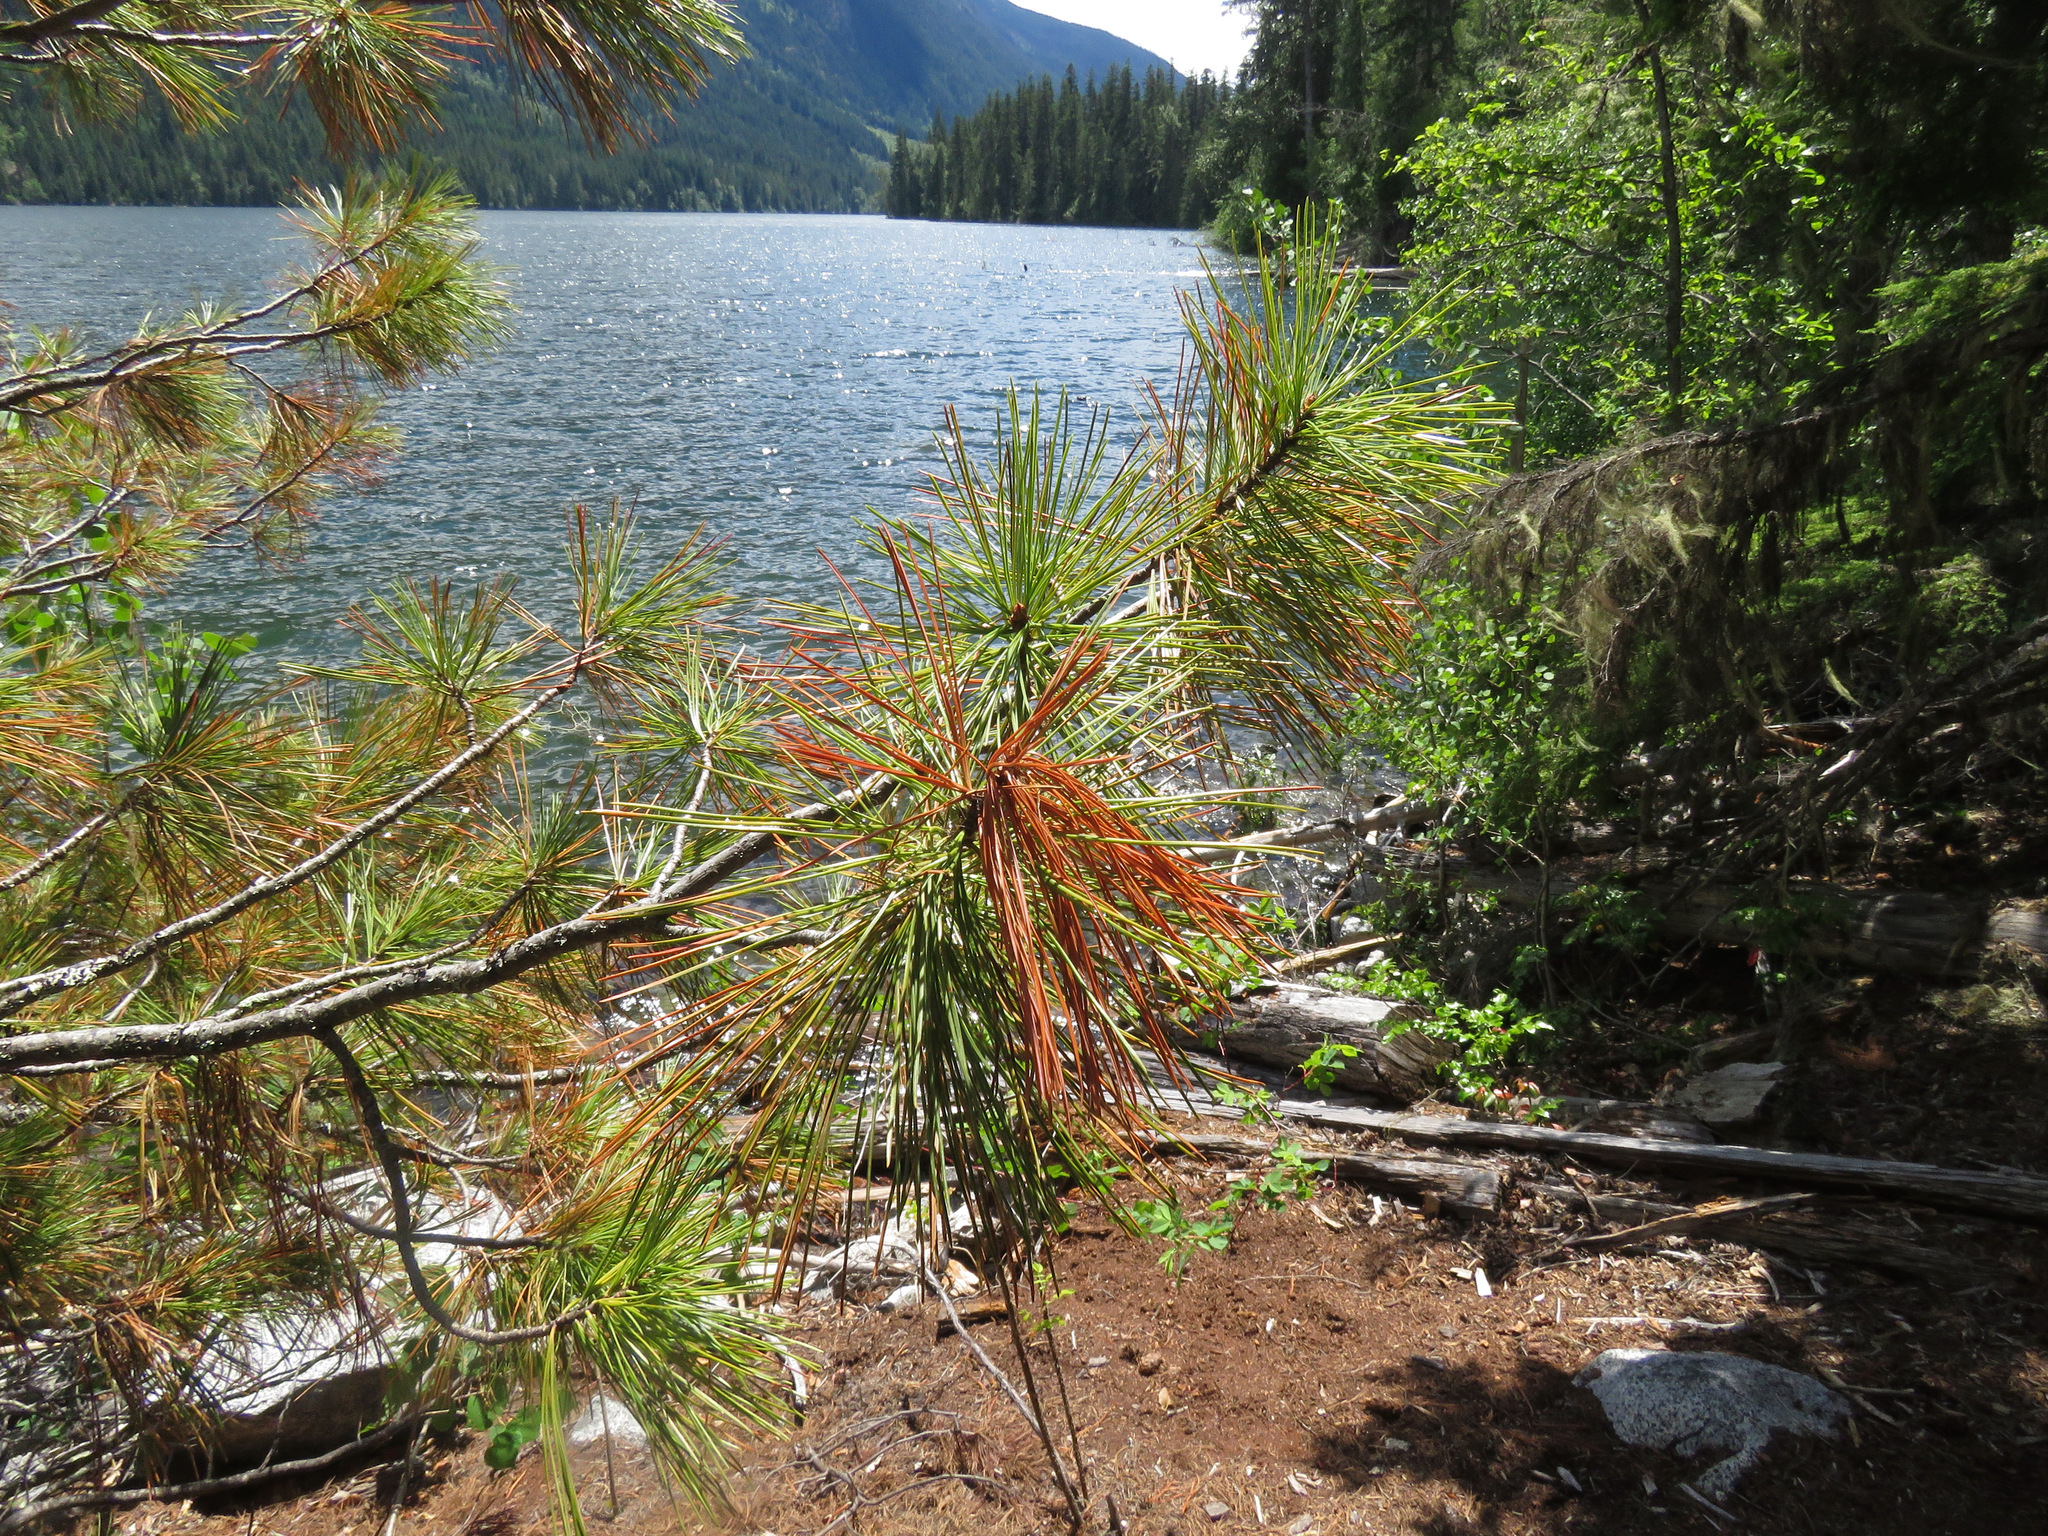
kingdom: Plantae
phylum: Tracheophyta
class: Pinopsida
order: Pinales
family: Pinaceae
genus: Pinus
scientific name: Pinus monticola
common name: Western white pine
